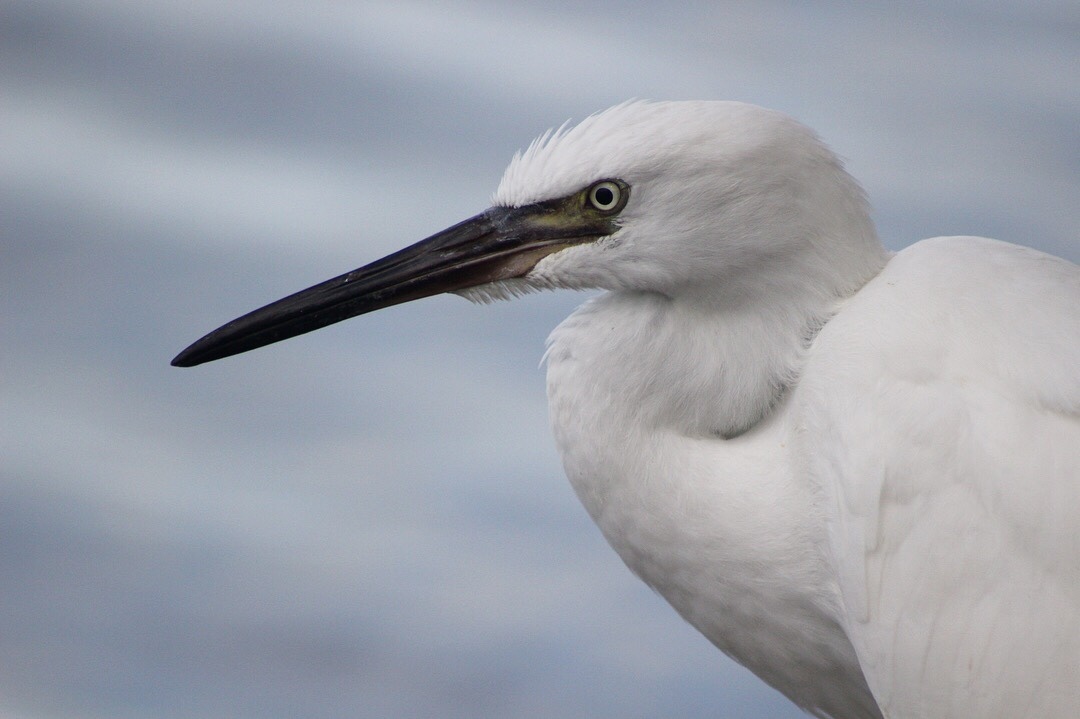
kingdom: Animalia
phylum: Chordata
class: Aves
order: Pelecaniformes
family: Ardeidae
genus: Egretta
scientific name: Egretta rufescens
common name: Reddish egret
